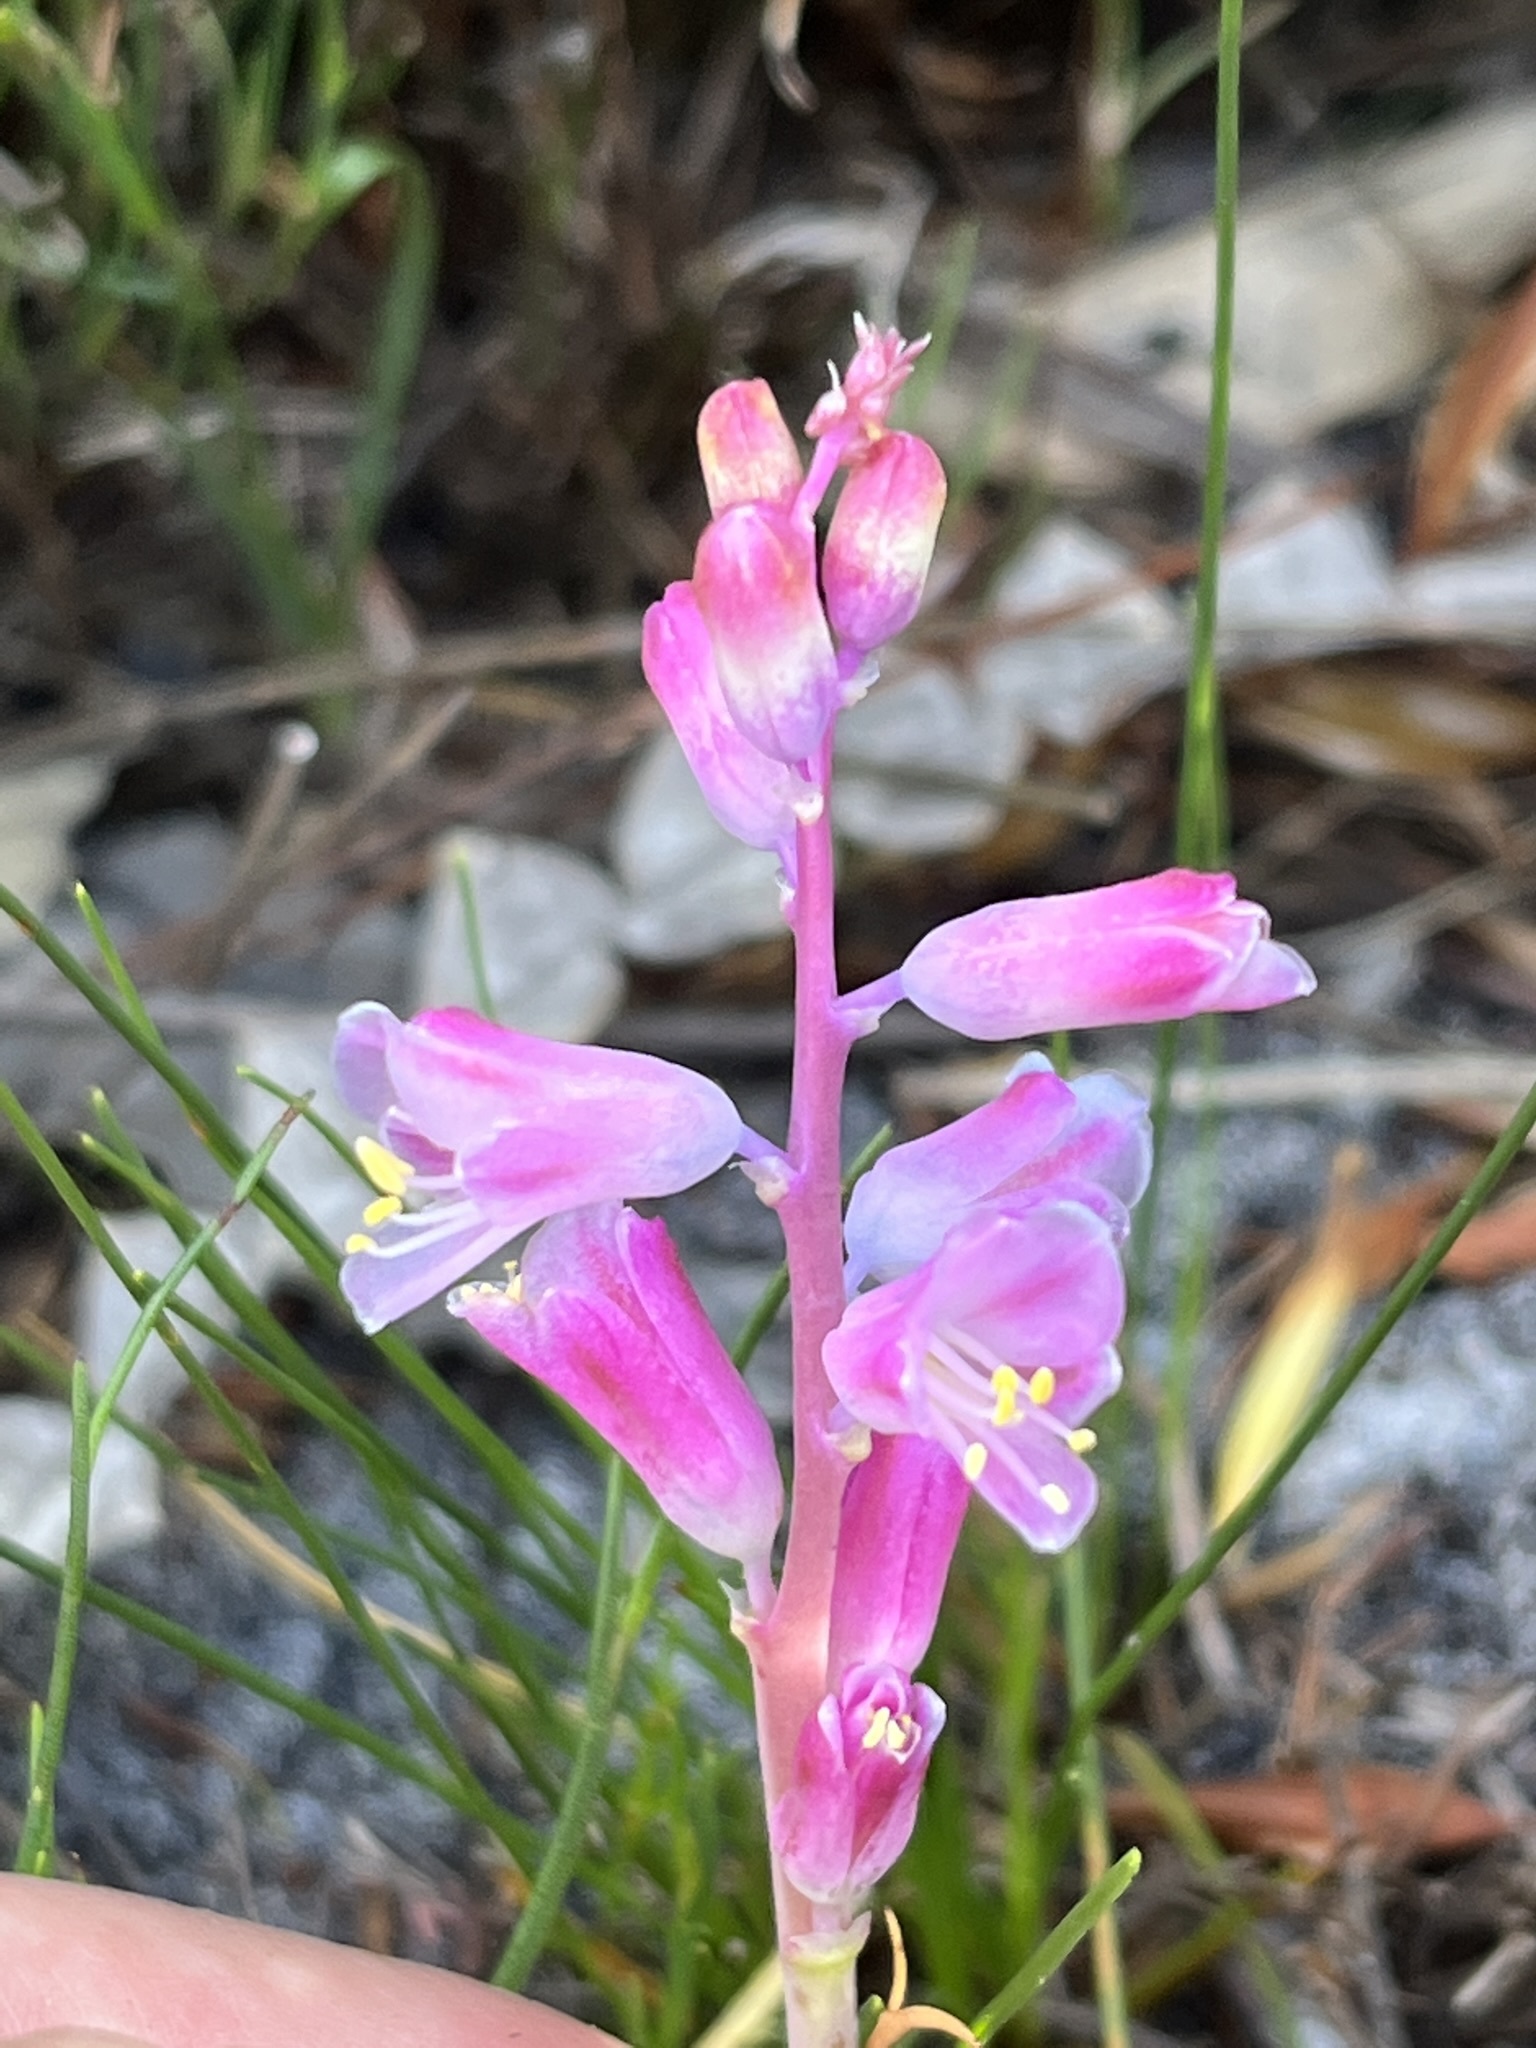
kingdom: Plantae
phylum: Tracheophyta
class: Liliopsida
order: Asparagales
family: Asparagaceae
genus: Lachenalia
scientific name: Lachenalia salteri
